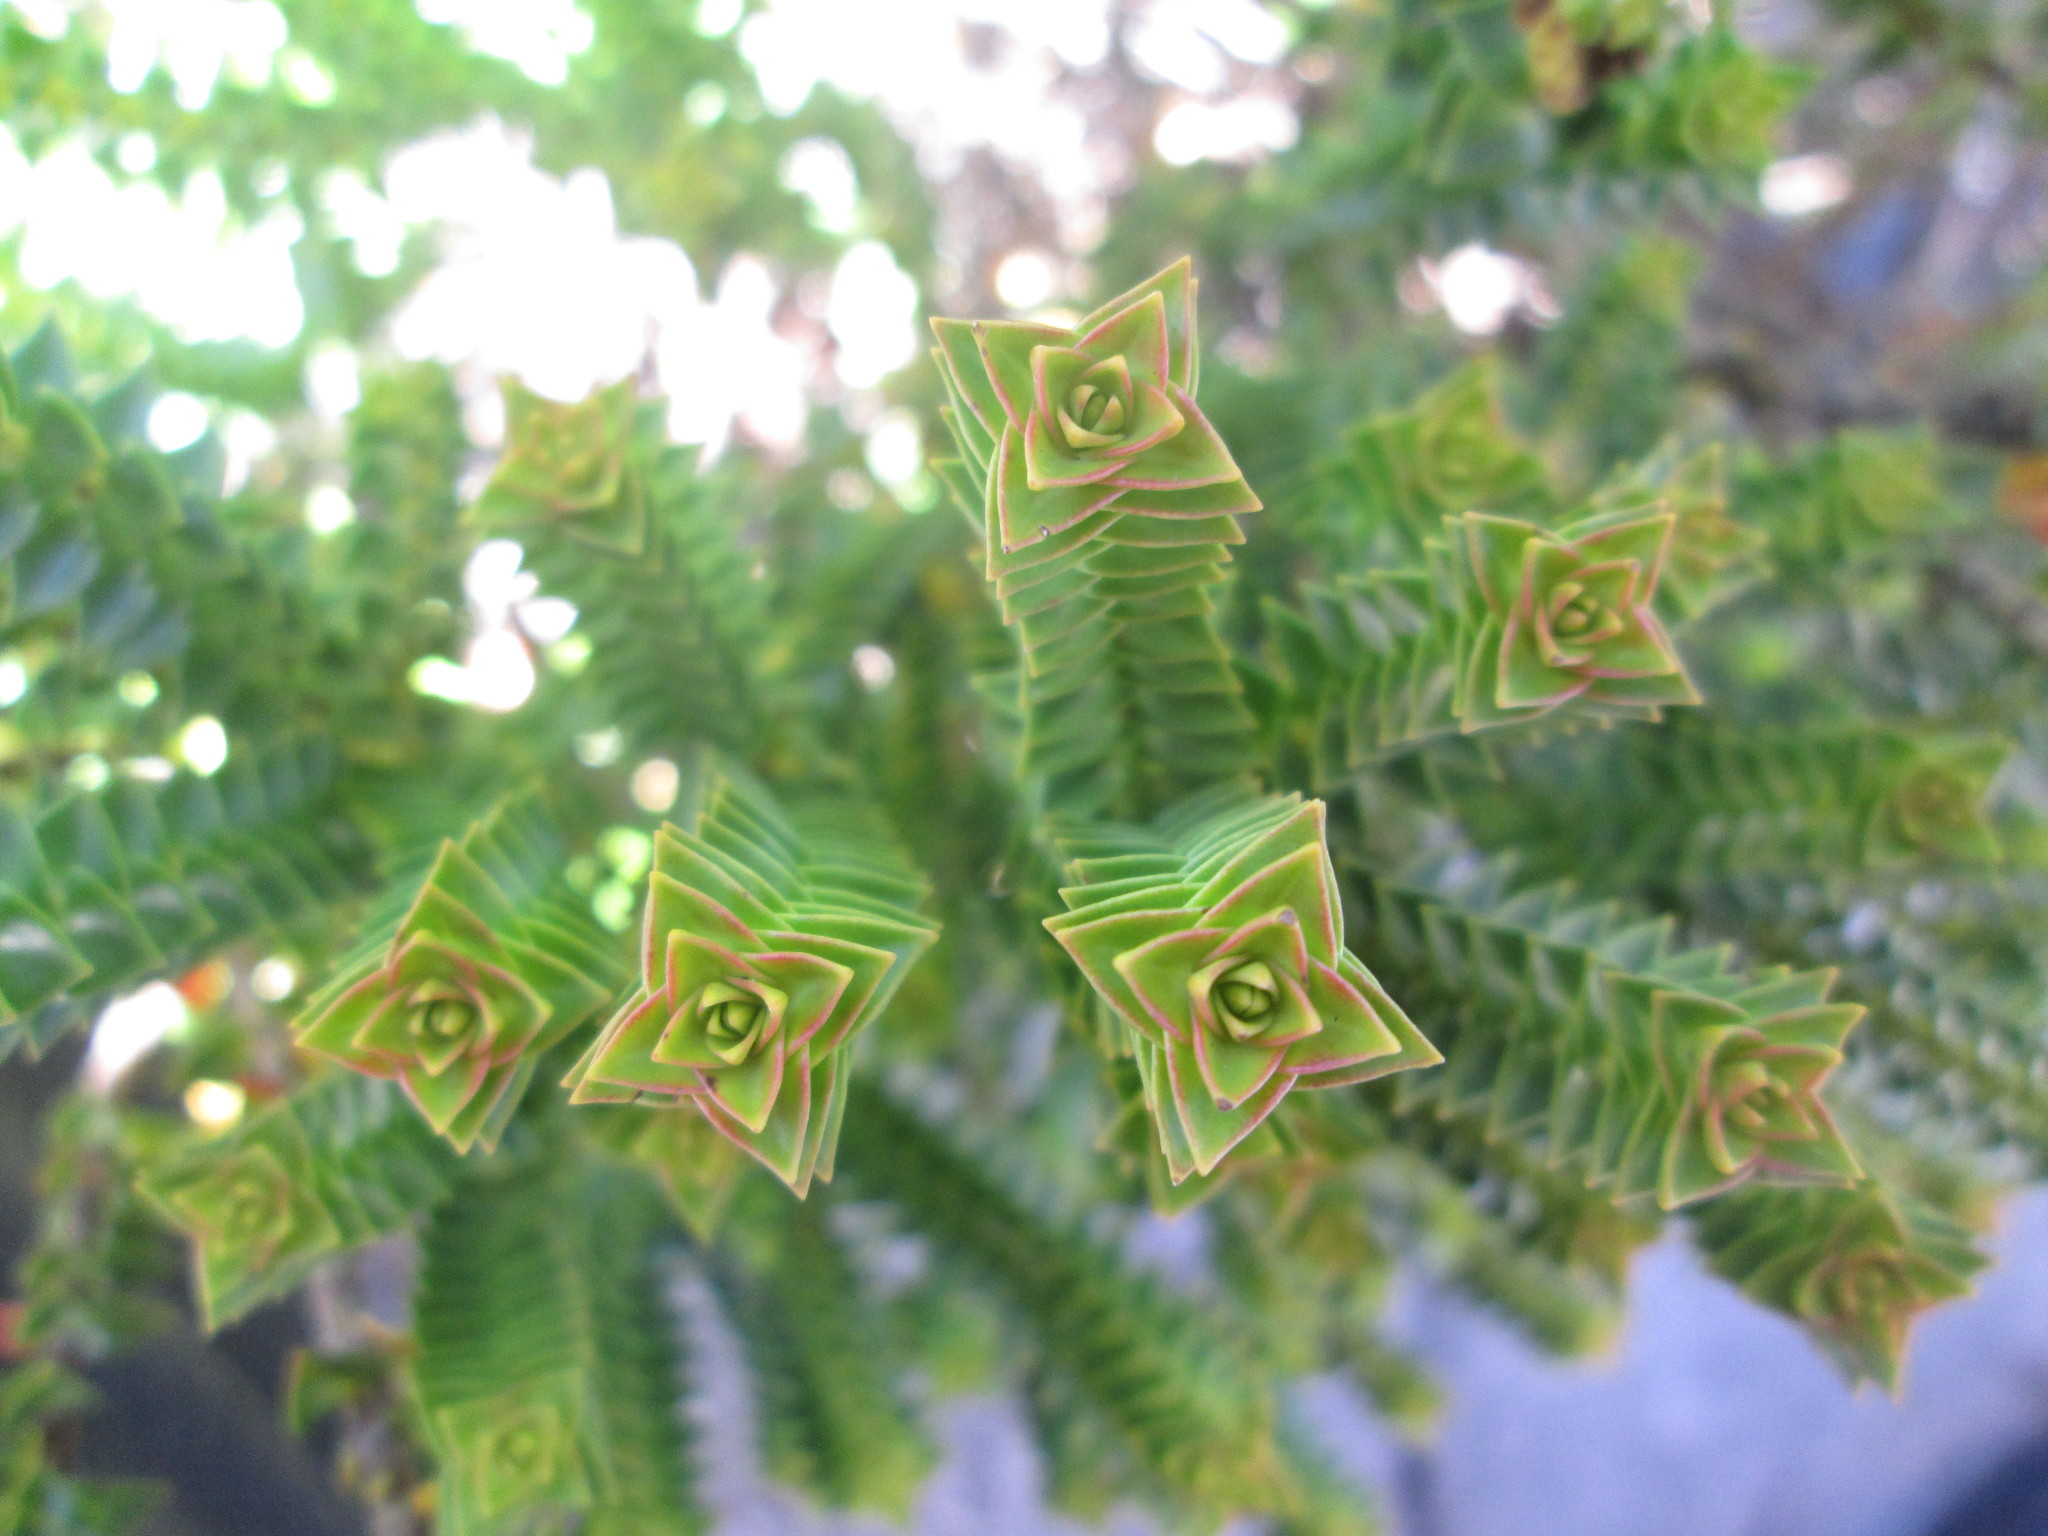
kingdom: Plantae
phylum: Tracheophyta
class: Magnoliopsida
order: Myrtales
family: Penaeaceae
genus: Penaea
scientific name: Penaea mucronata
